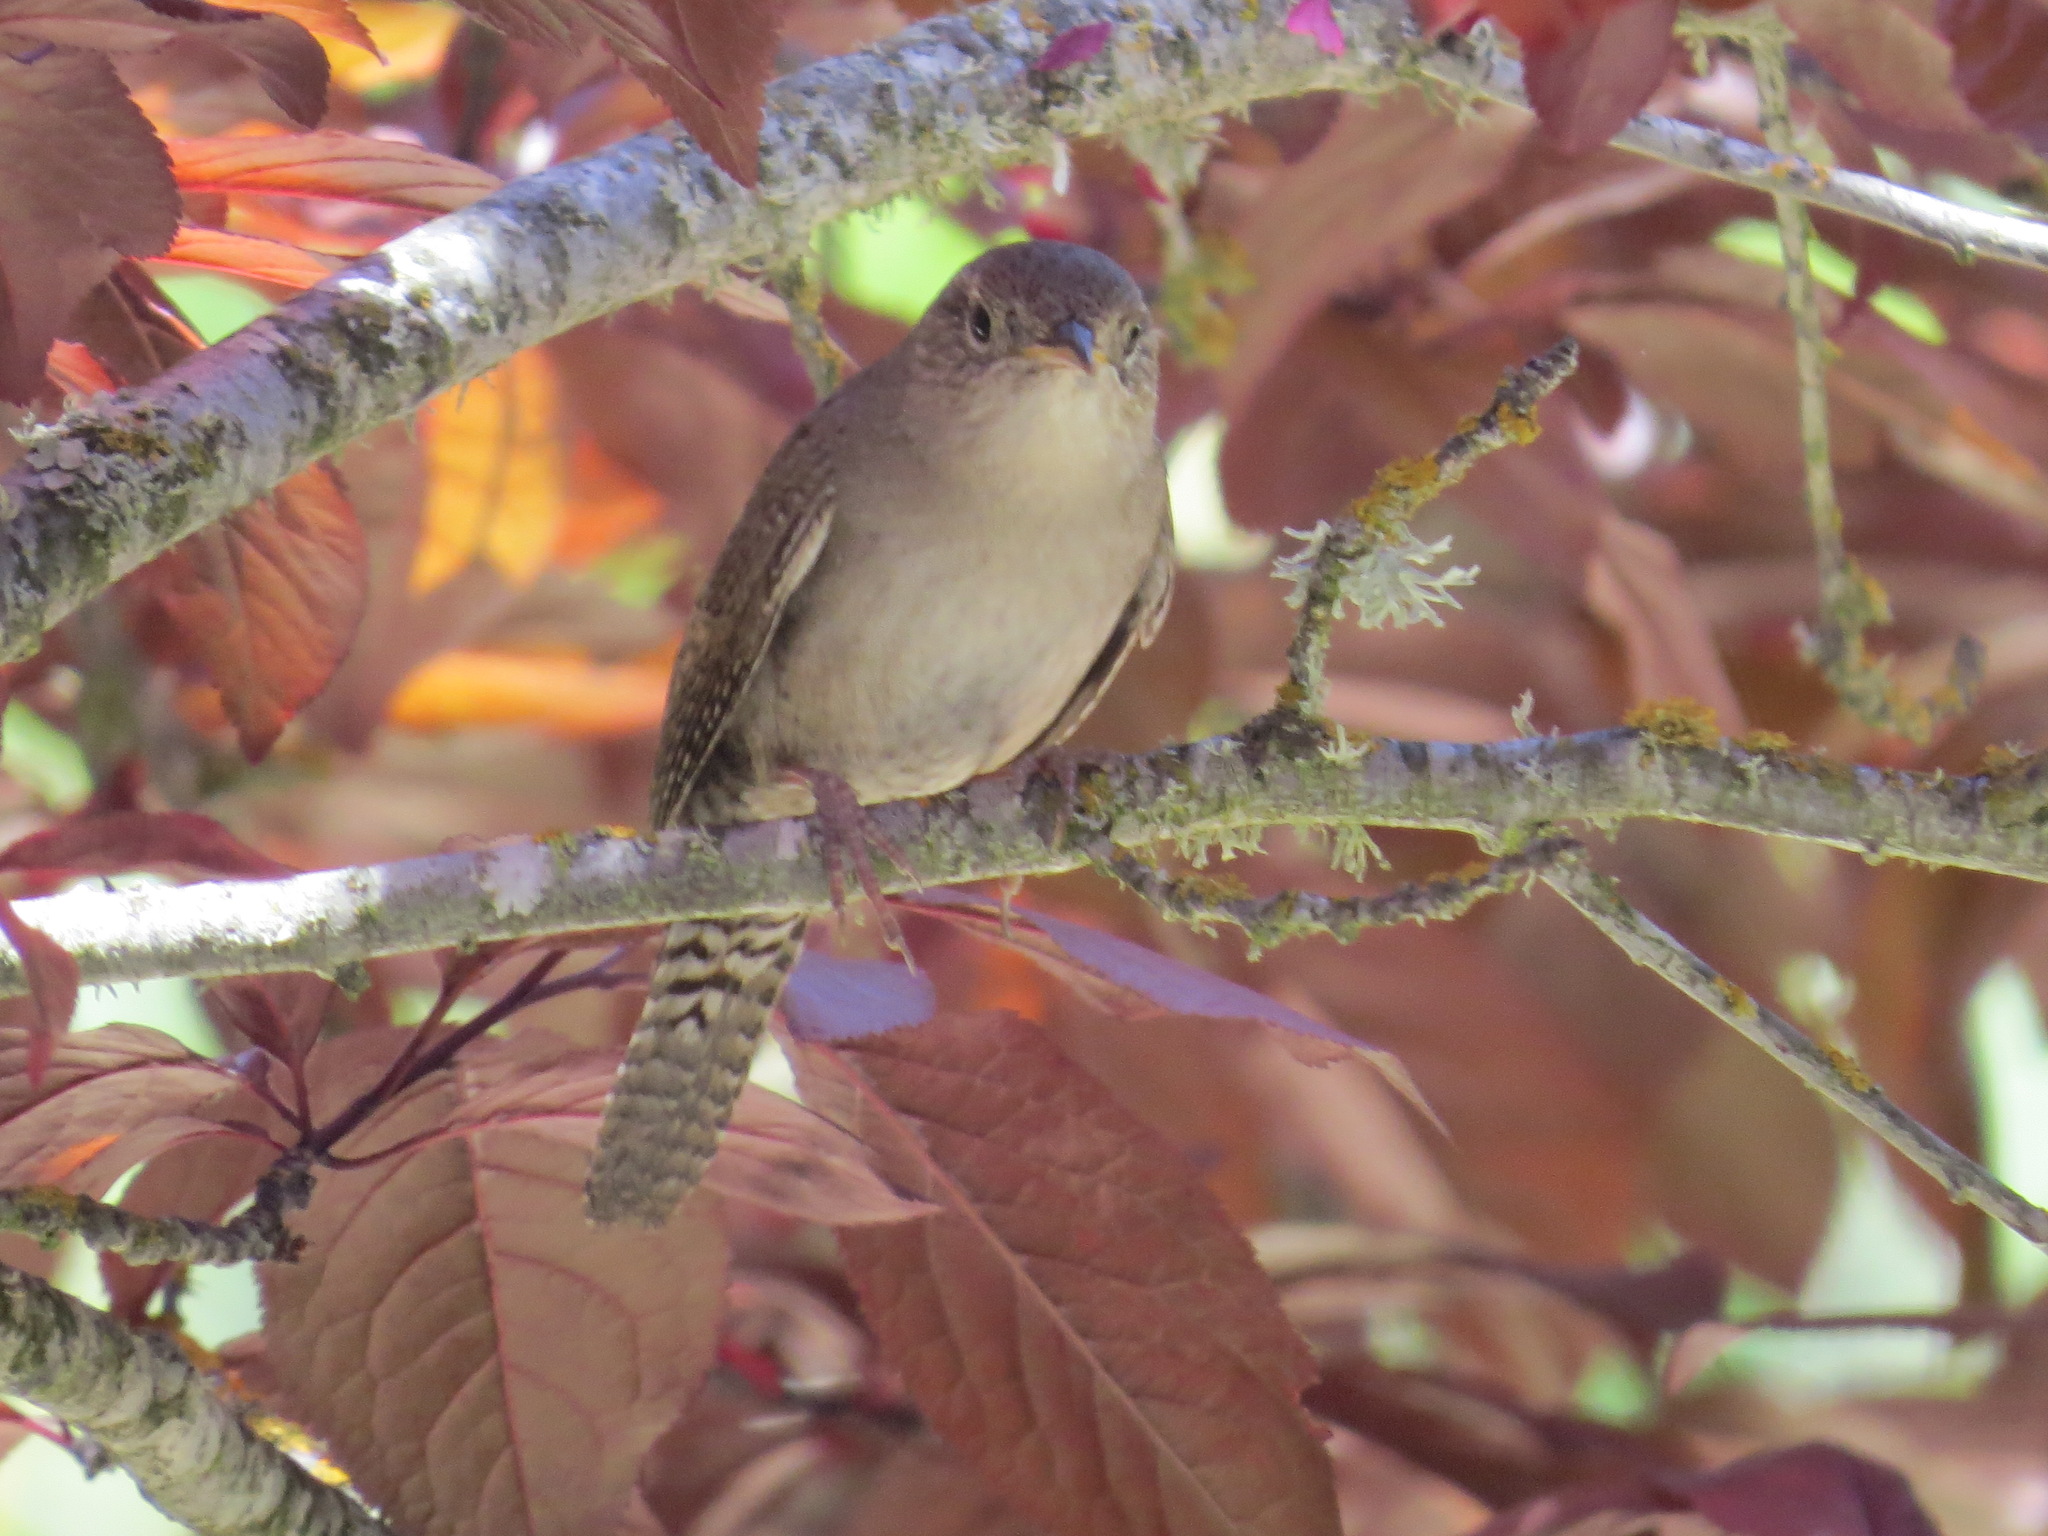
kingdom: Animalia
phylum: Chordata
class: Aves
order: Passeriformes
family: Troglodytidae
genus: Troglodytes
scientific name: Troglodytes aedon
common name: House wren
